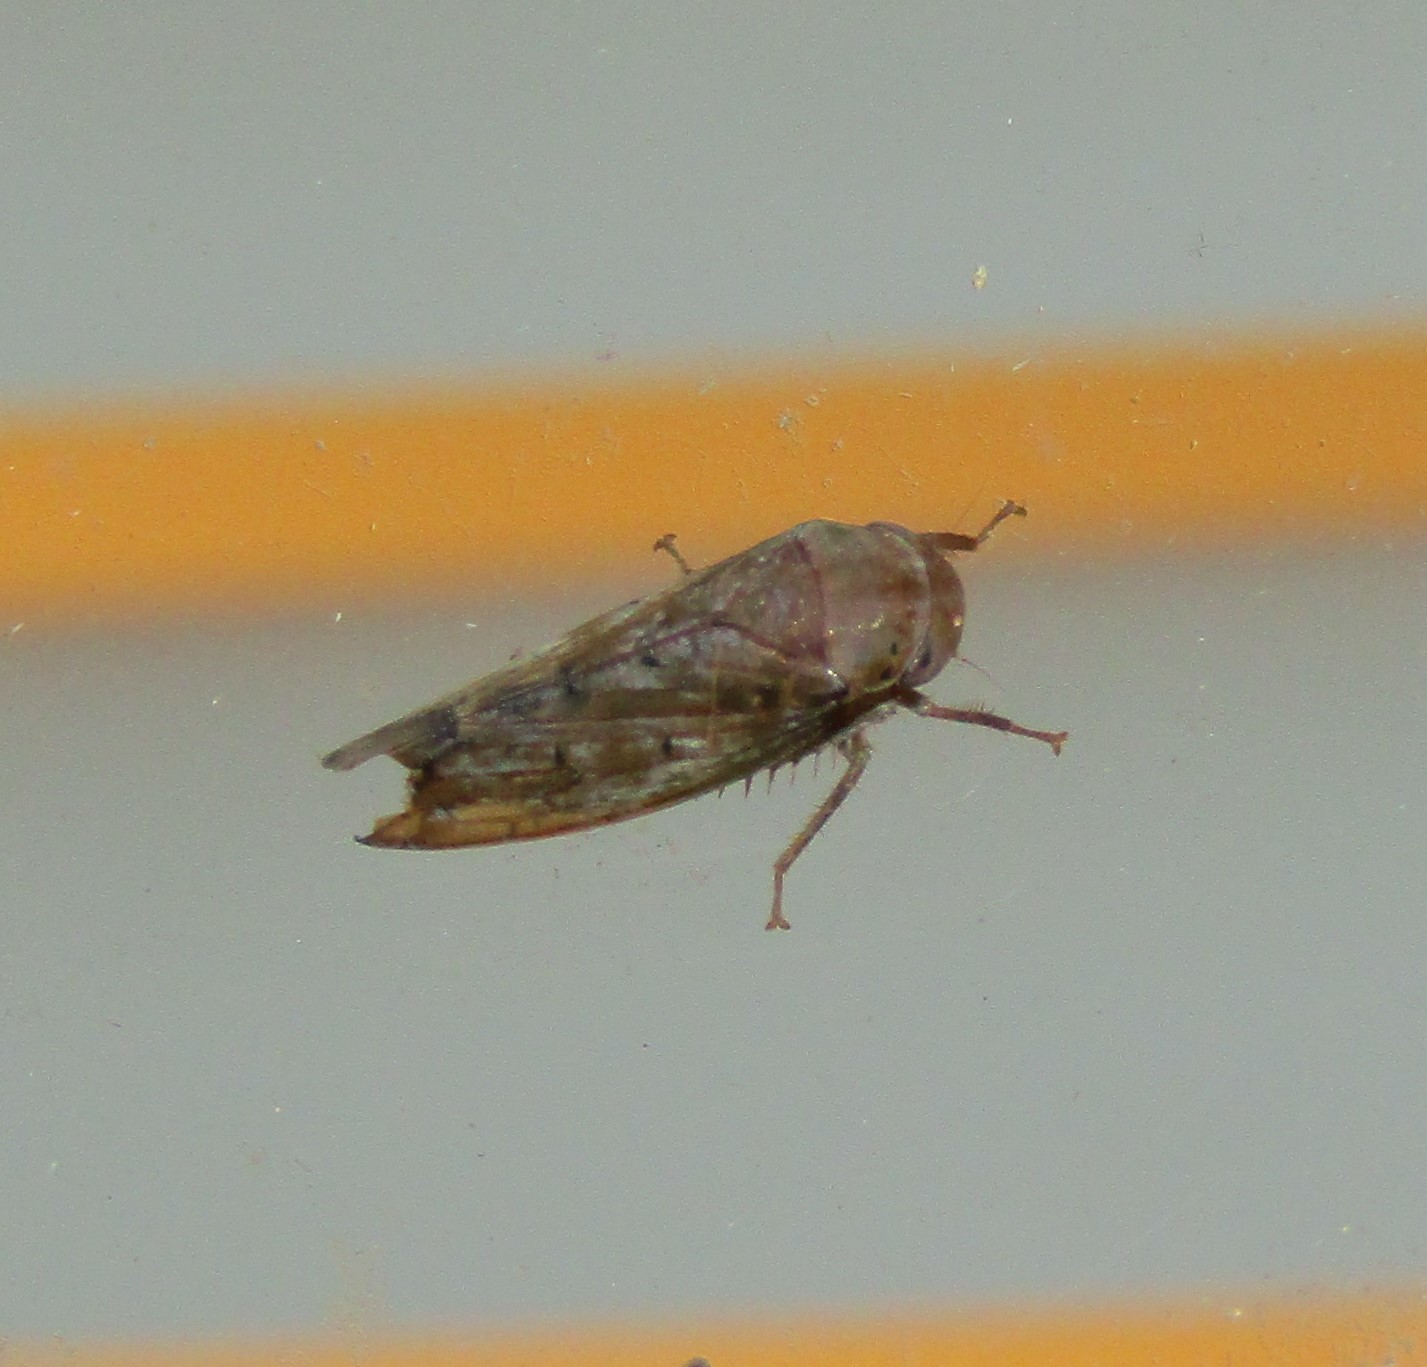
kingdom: Animalia
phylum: Arthropoda
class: Insecta
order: Hemiptera
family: Cicadellidae
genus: Ponana
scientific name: Ponana quadralaba
